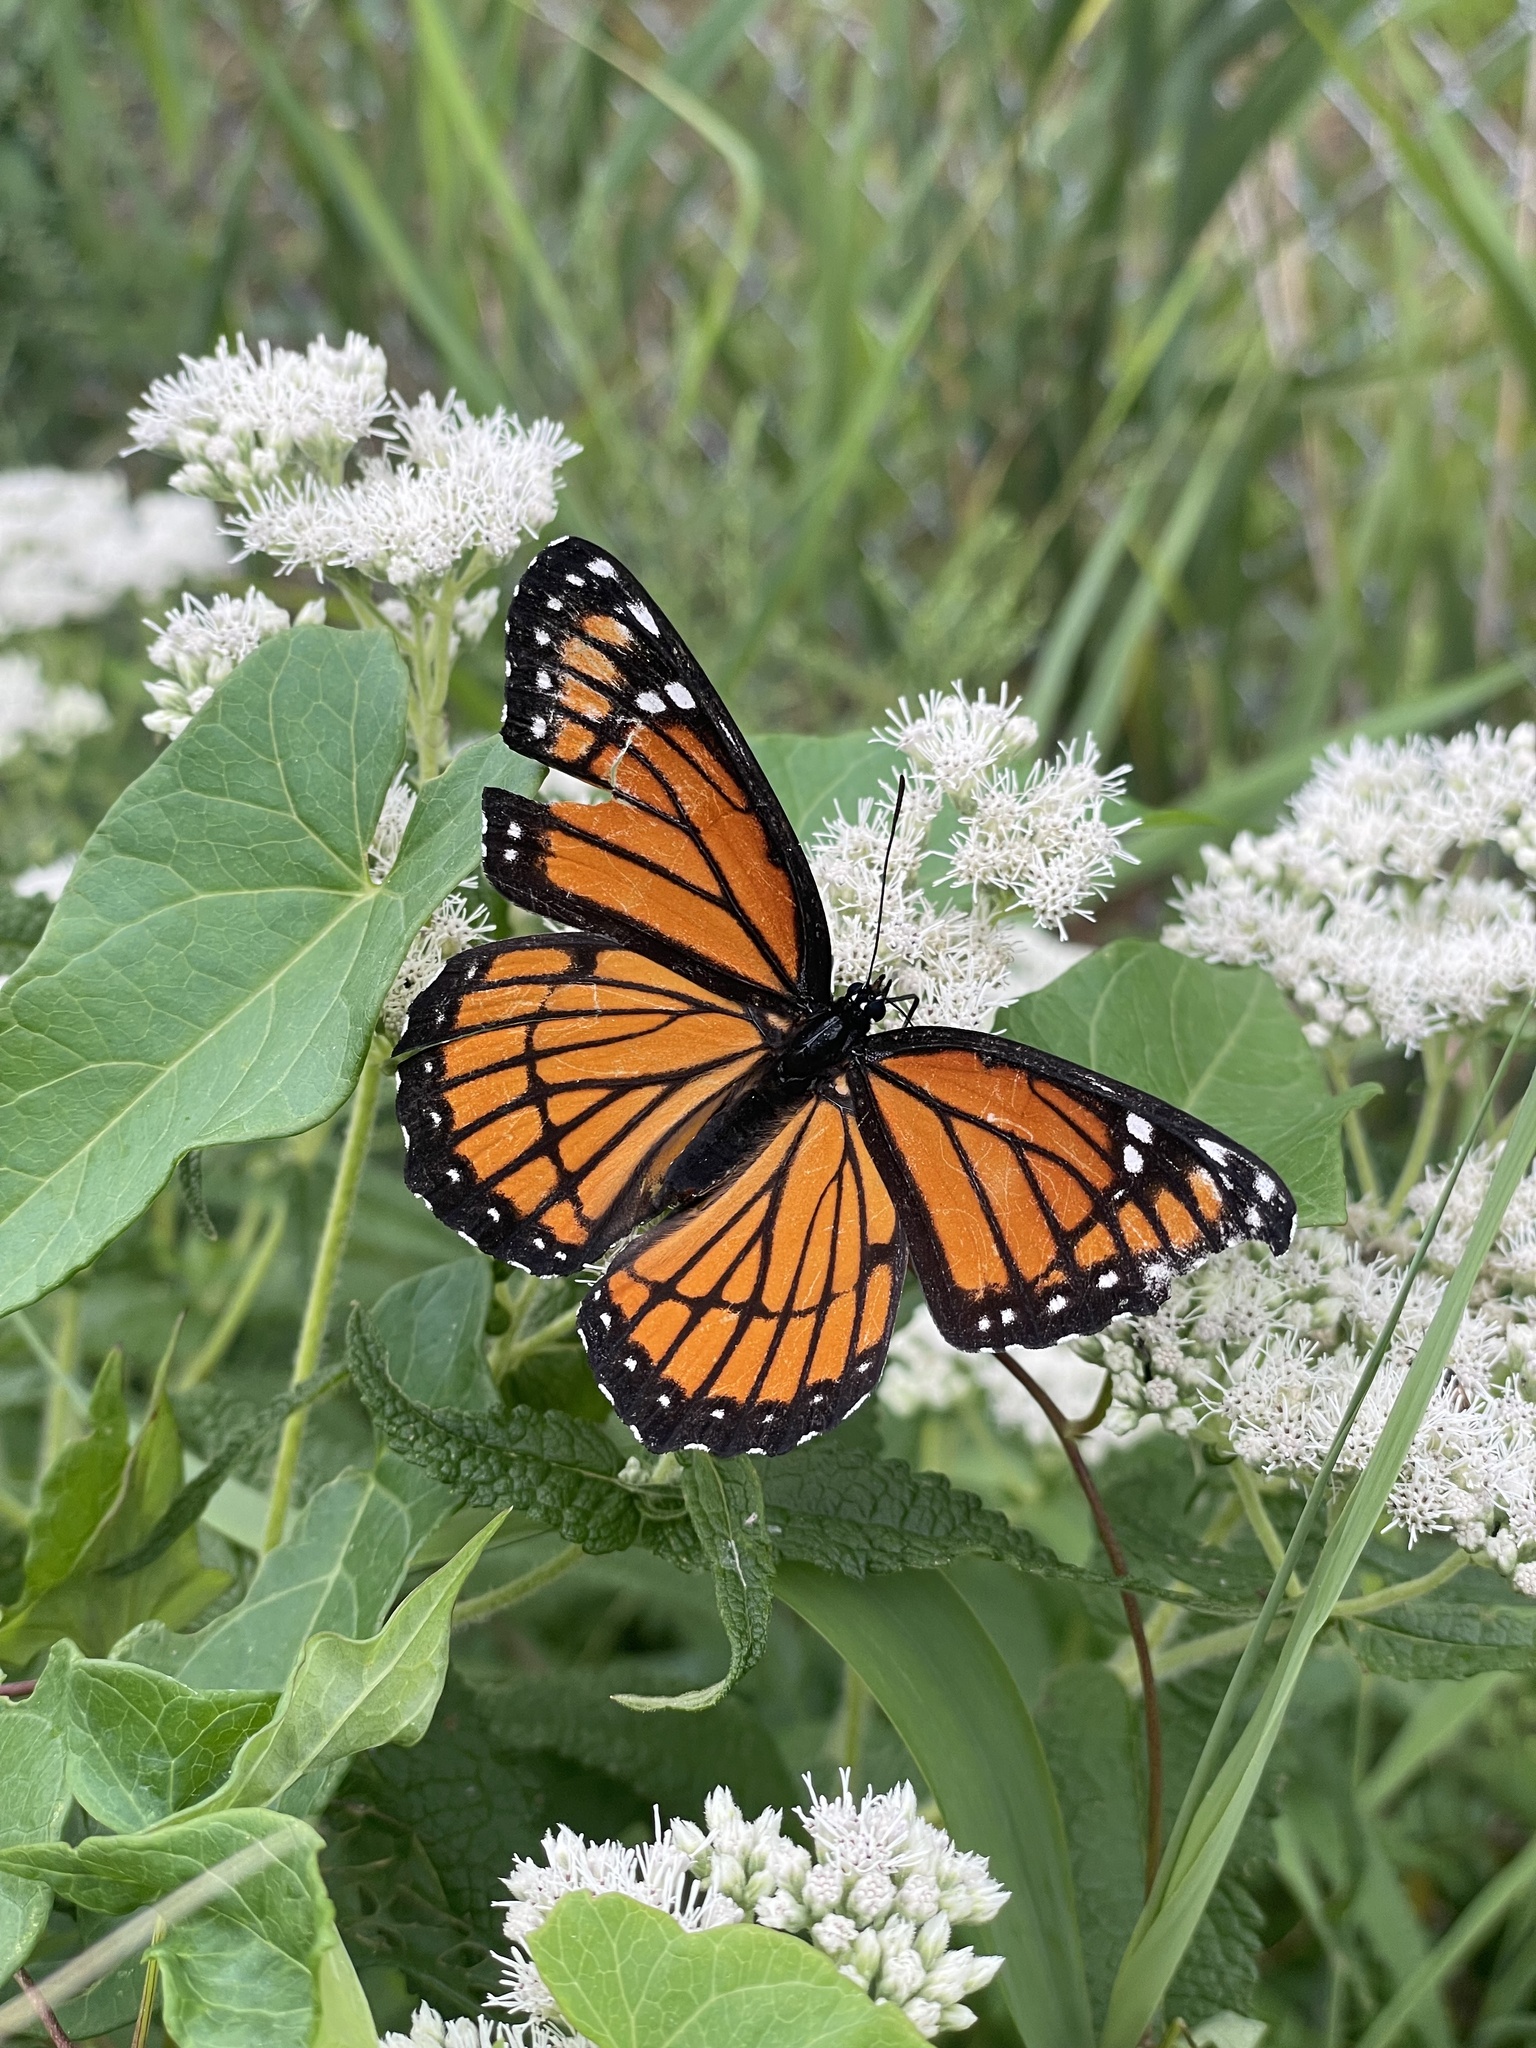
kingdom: Animalia
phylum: Arthropoda
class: Insecta
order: Lepidoptera
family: Nymphalidae
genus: Limenitis
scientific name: Limenitis archippus
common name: Viceroy
